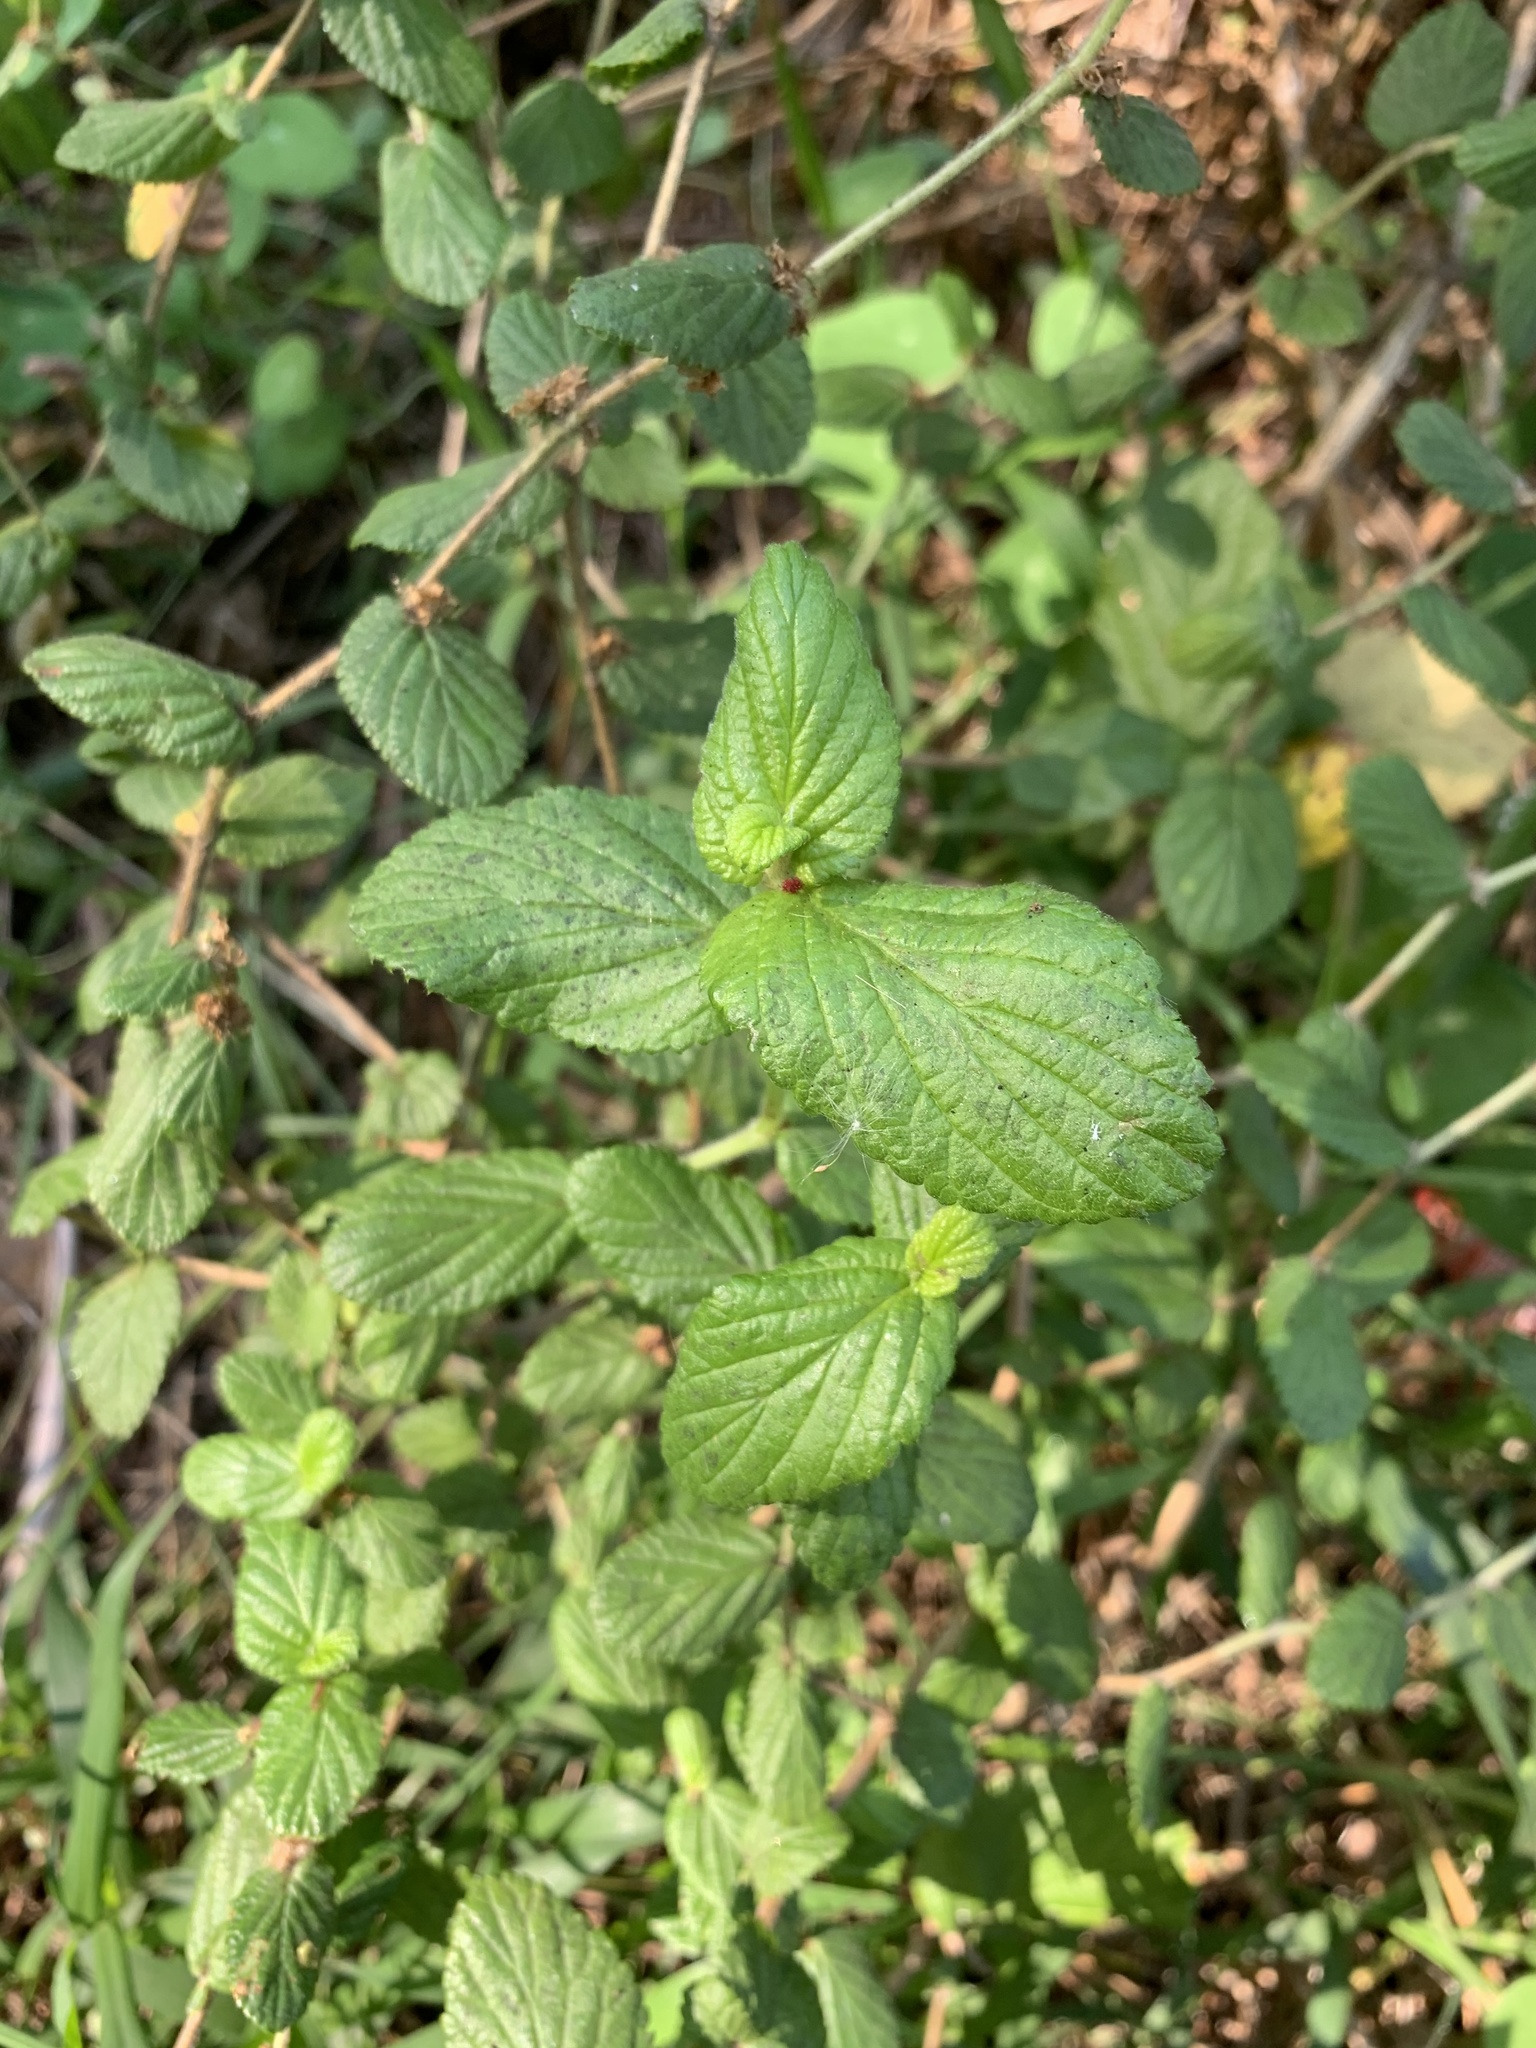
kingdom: Plantae
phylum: Tracheophyta
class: Magnoliopsida
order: Rosales
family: Rosaceae
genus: Cliffortia
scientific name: Cliffortia odorata
